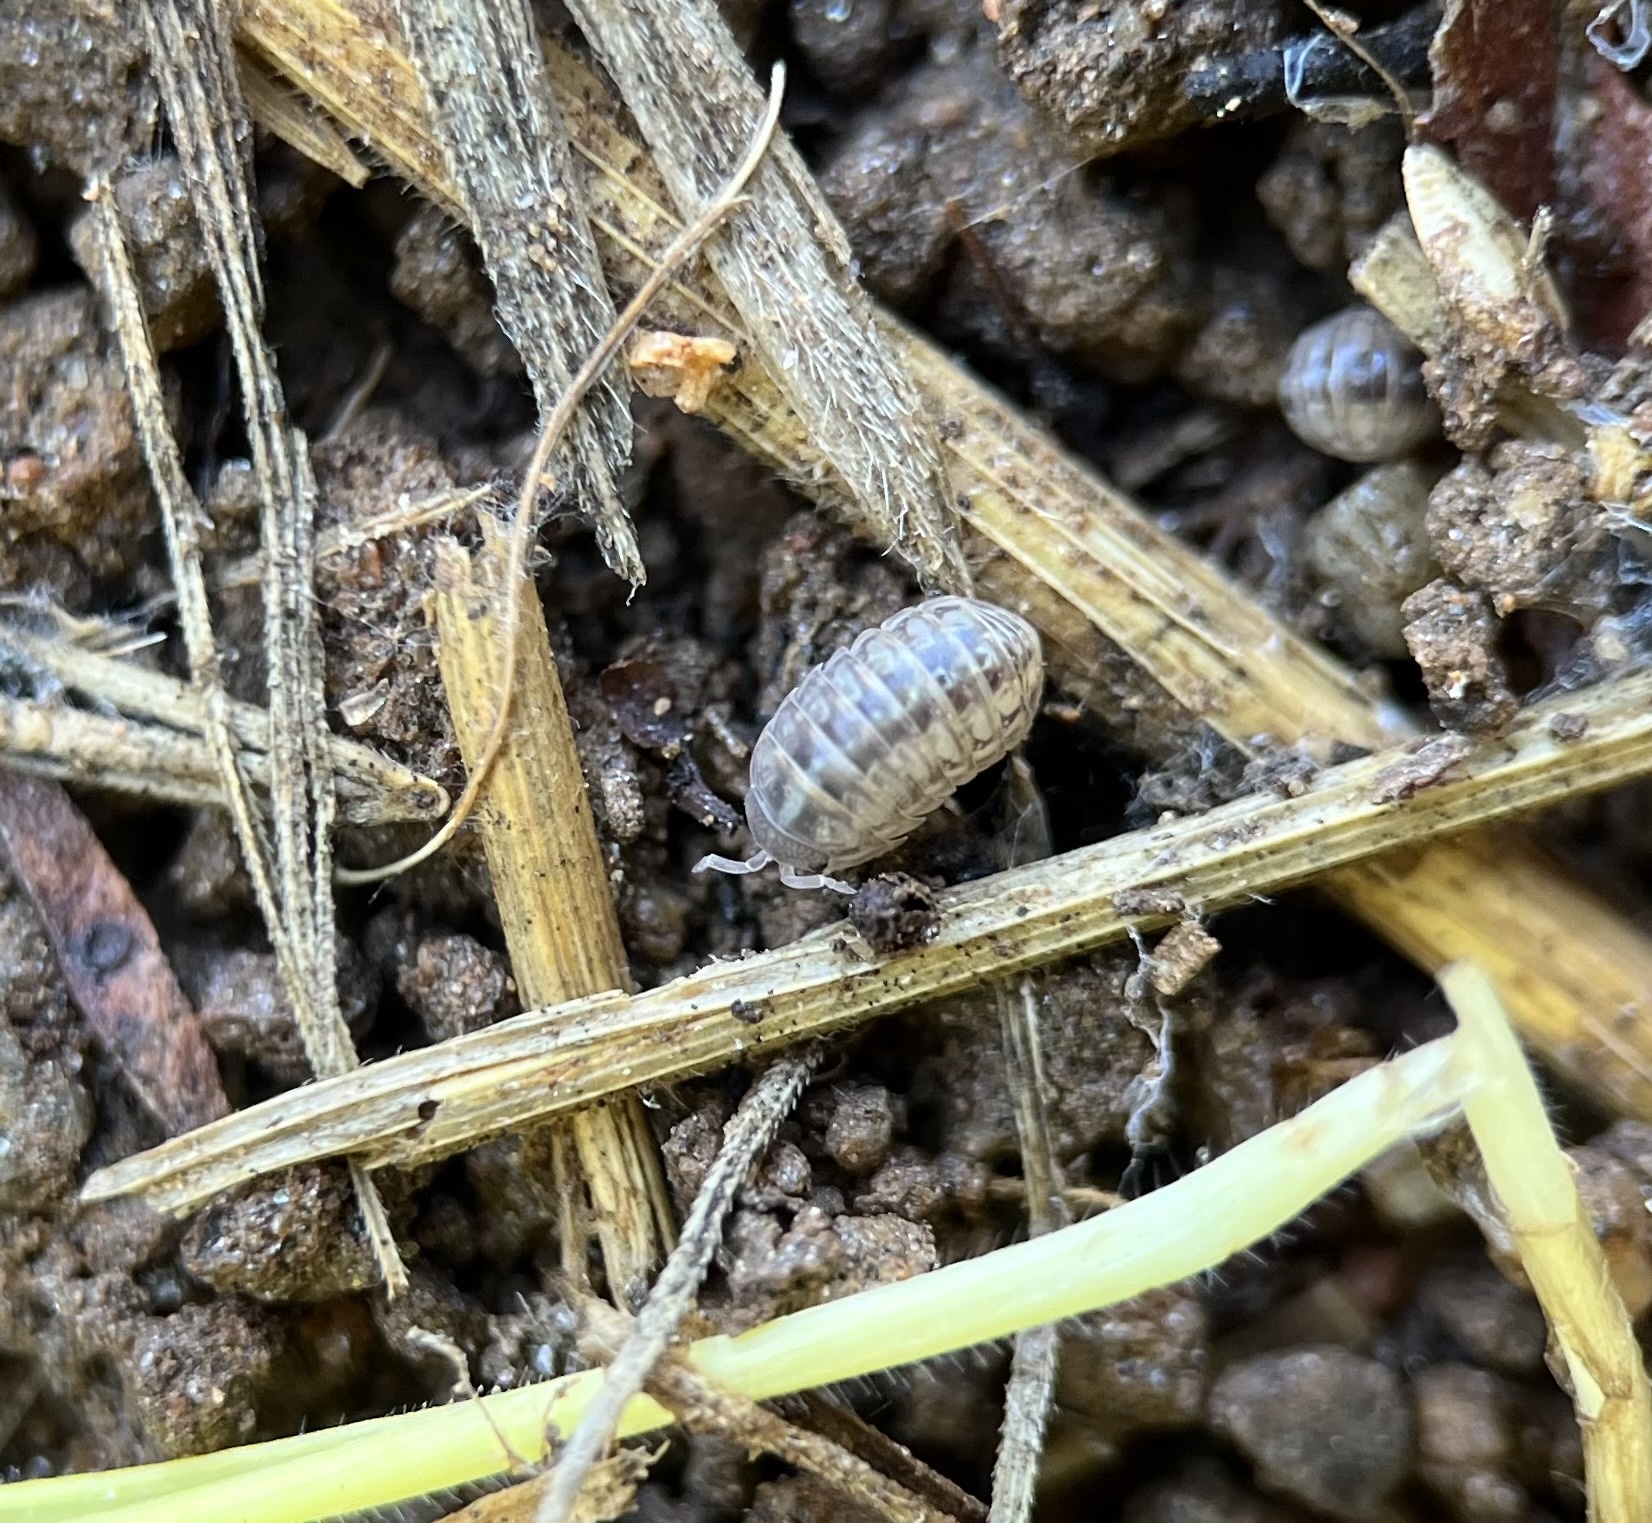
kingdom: Animalia
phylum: Arthropoda
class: Malacostraca
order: Isopoda
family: Armadillidiidae
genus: Armadillidium
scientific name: Armadillidium vulgare
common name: Common pill woodlouse
